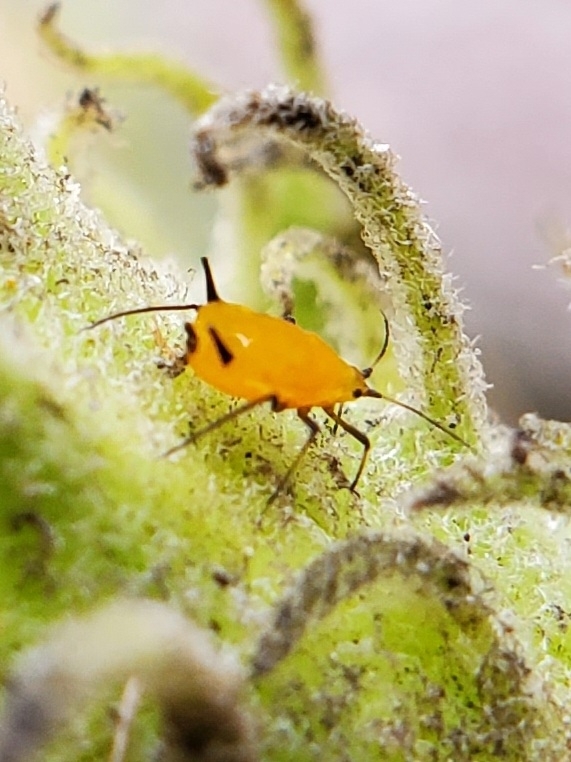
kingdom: Animalia
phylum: Arthropoda
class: Insecta
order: Hemiptera
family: Aphididae
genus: Aphis
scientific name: Aphis nerii
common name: Oleander aphid
